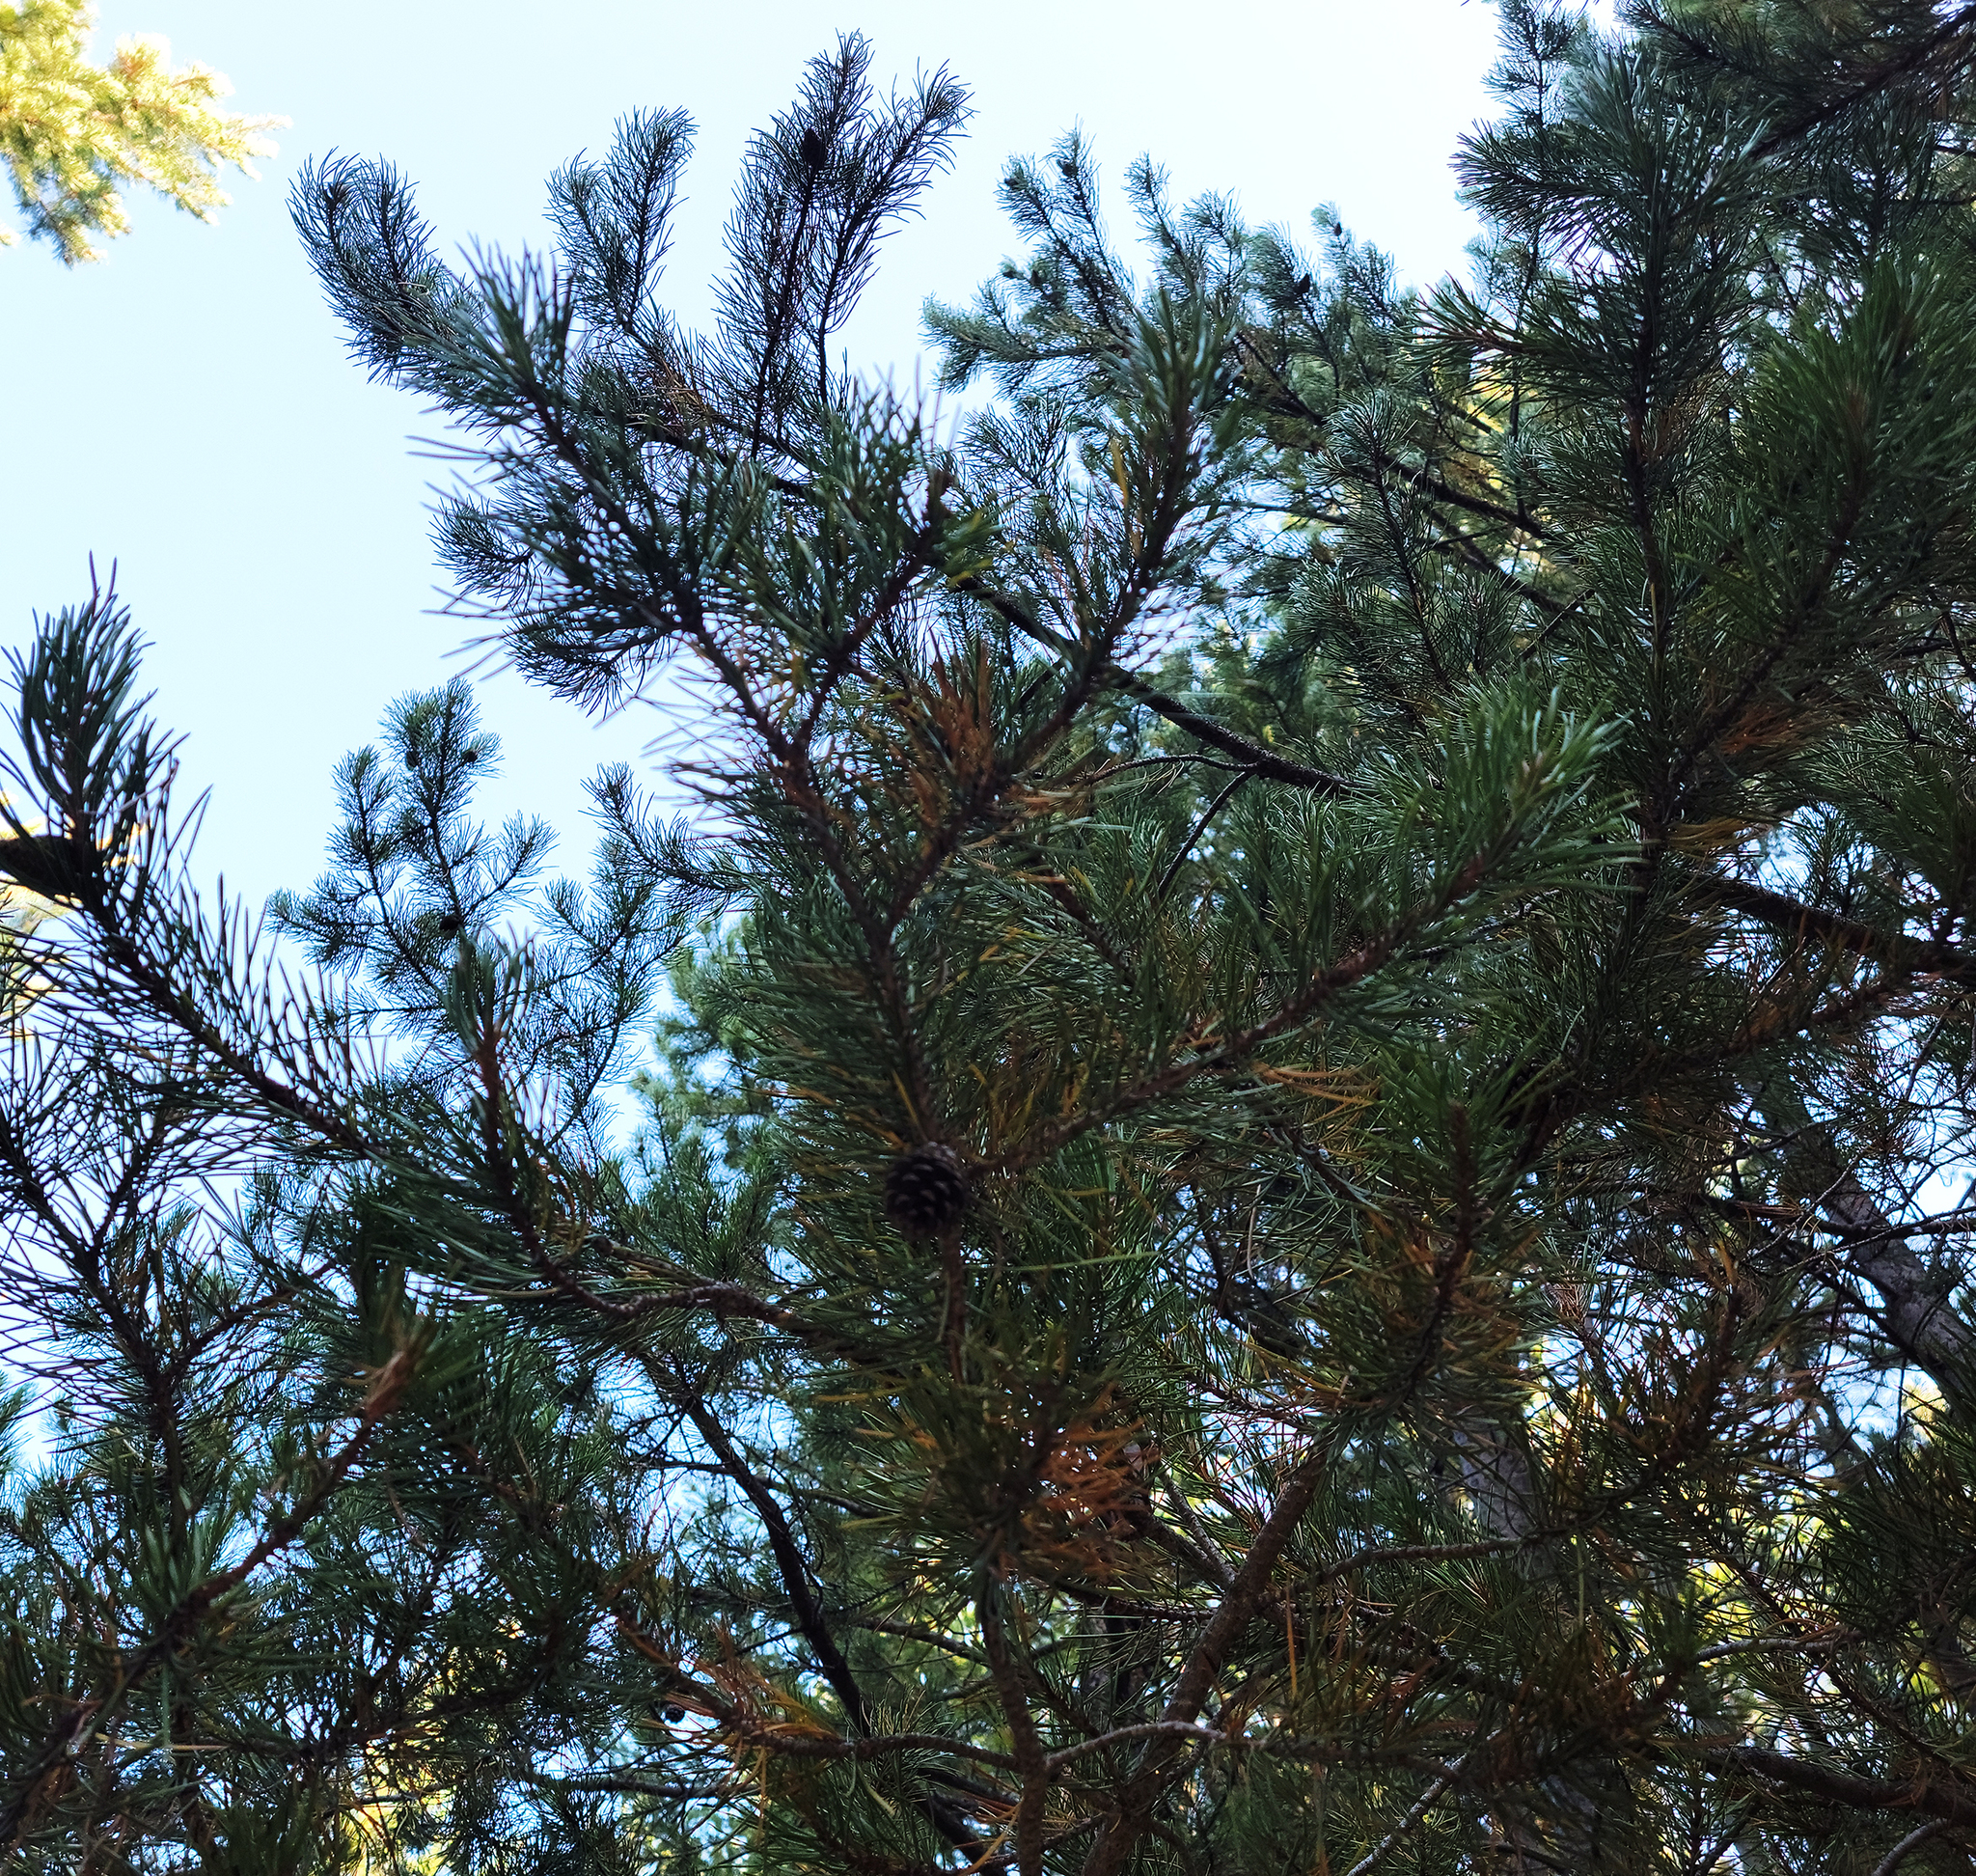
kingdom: Plantae
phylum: Tracheophyta
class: Pinopsida
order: Pinales
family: Pinaceae
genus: Pinus
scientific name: Pinus contorta
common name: Lodgepole pine
